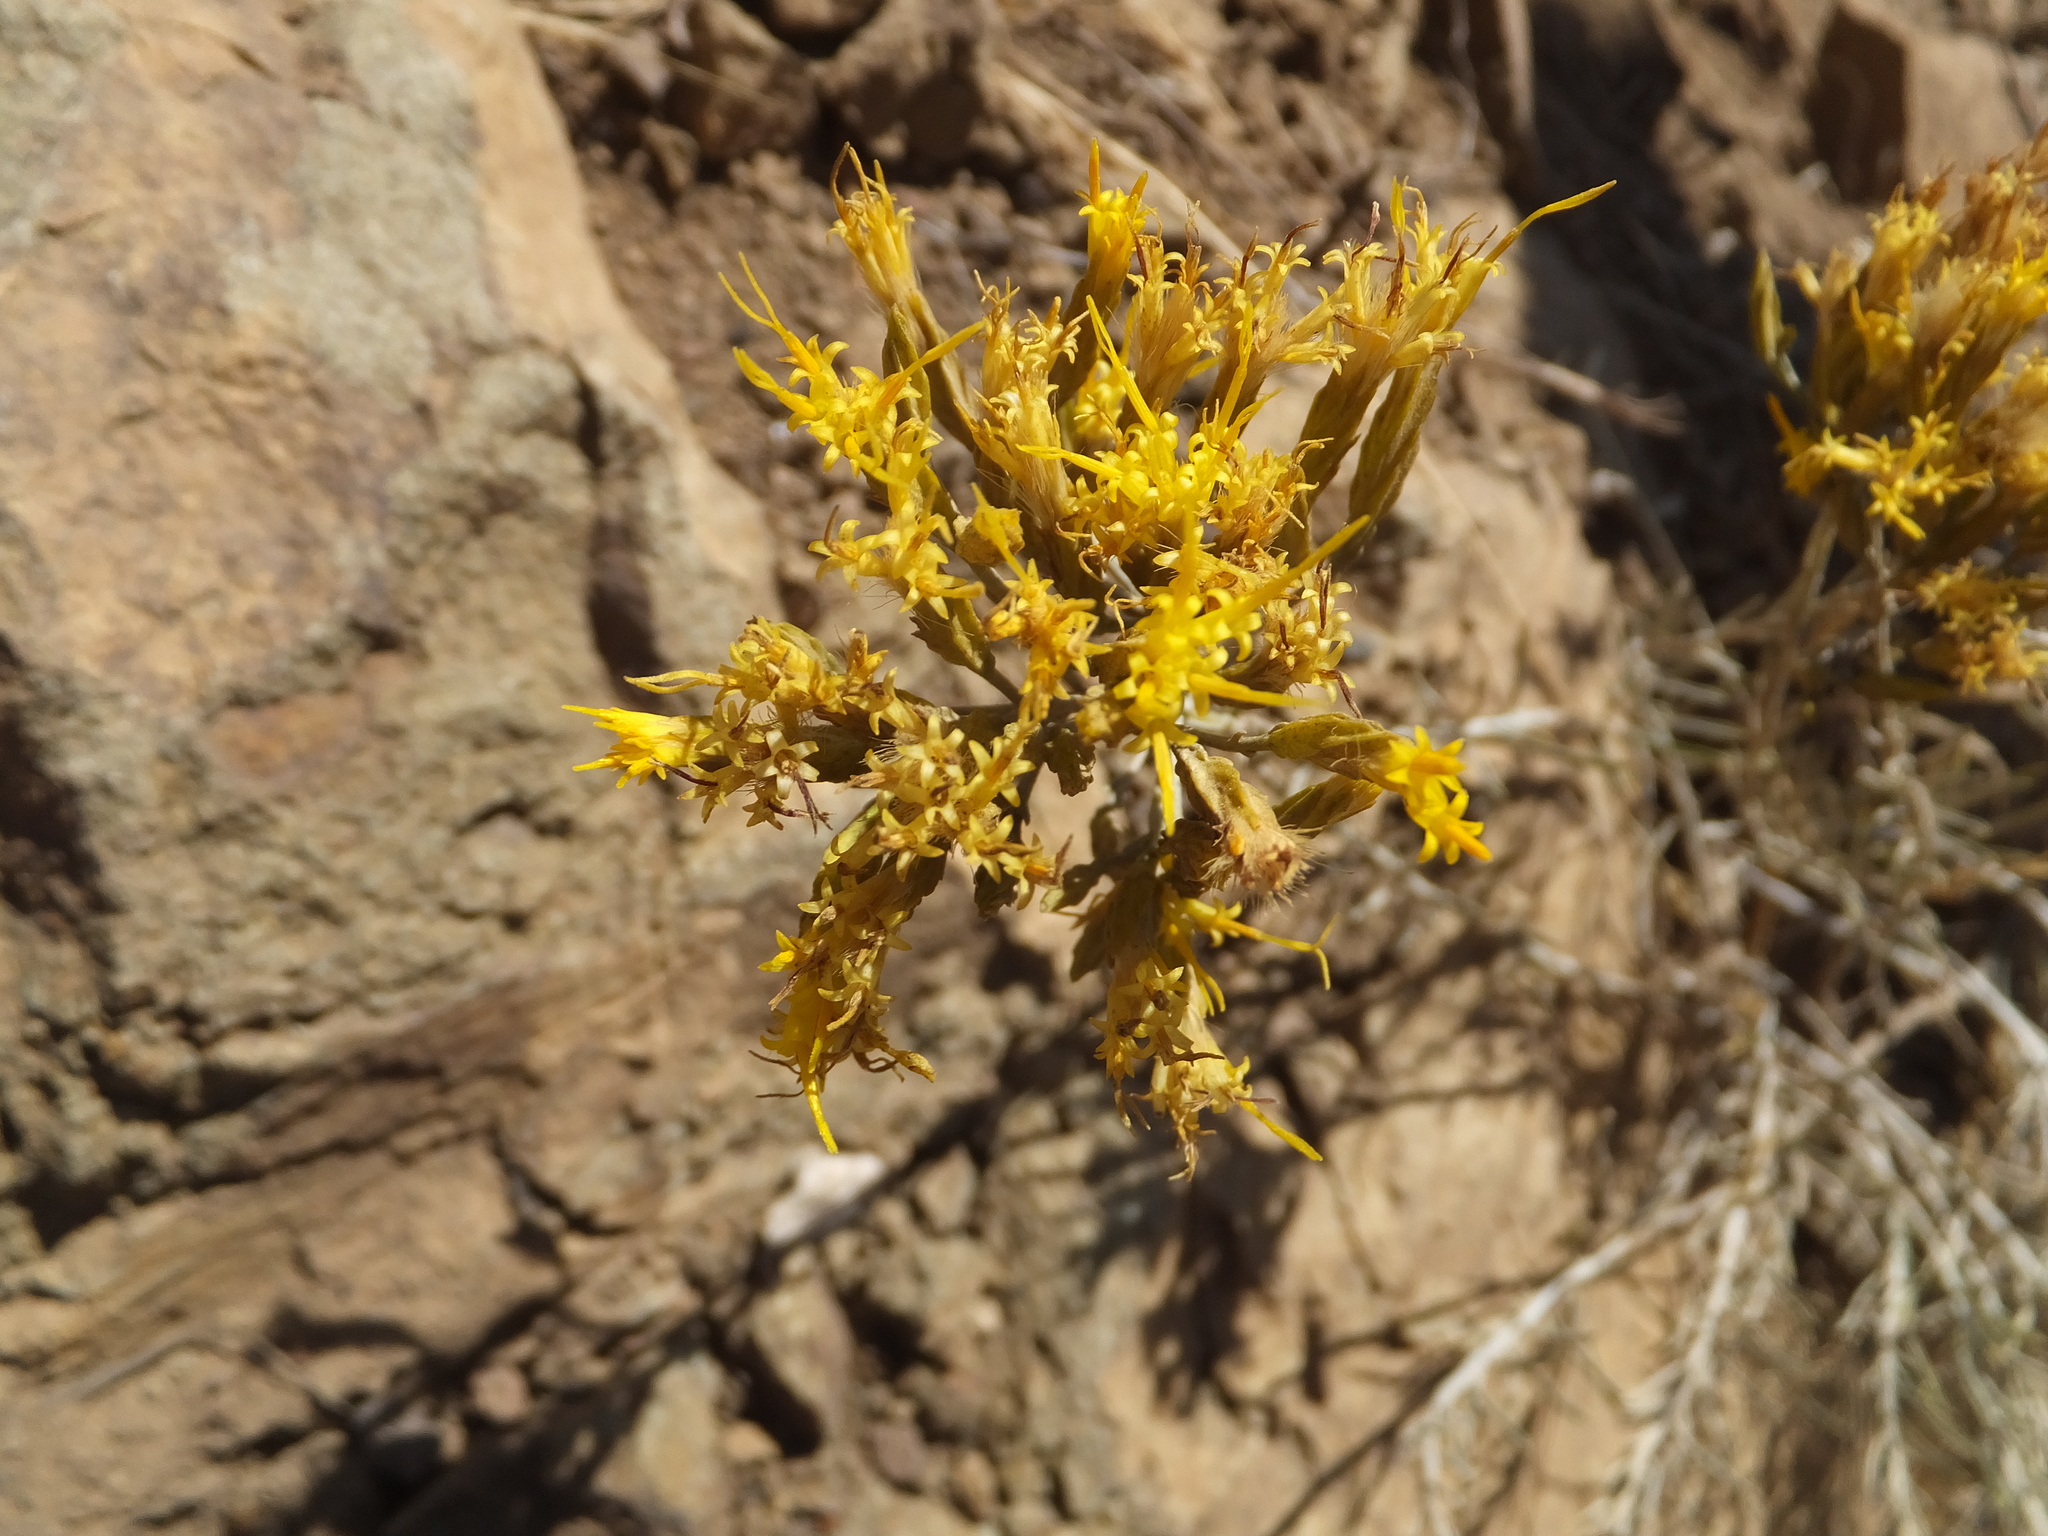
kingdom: Plantae
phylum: Tracheophyta
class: Magnoliopsida
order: Asterales
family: Asteraceae
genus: Ericameria
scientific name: Ericameria nauseosa
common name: Rubber rabbitbrush
